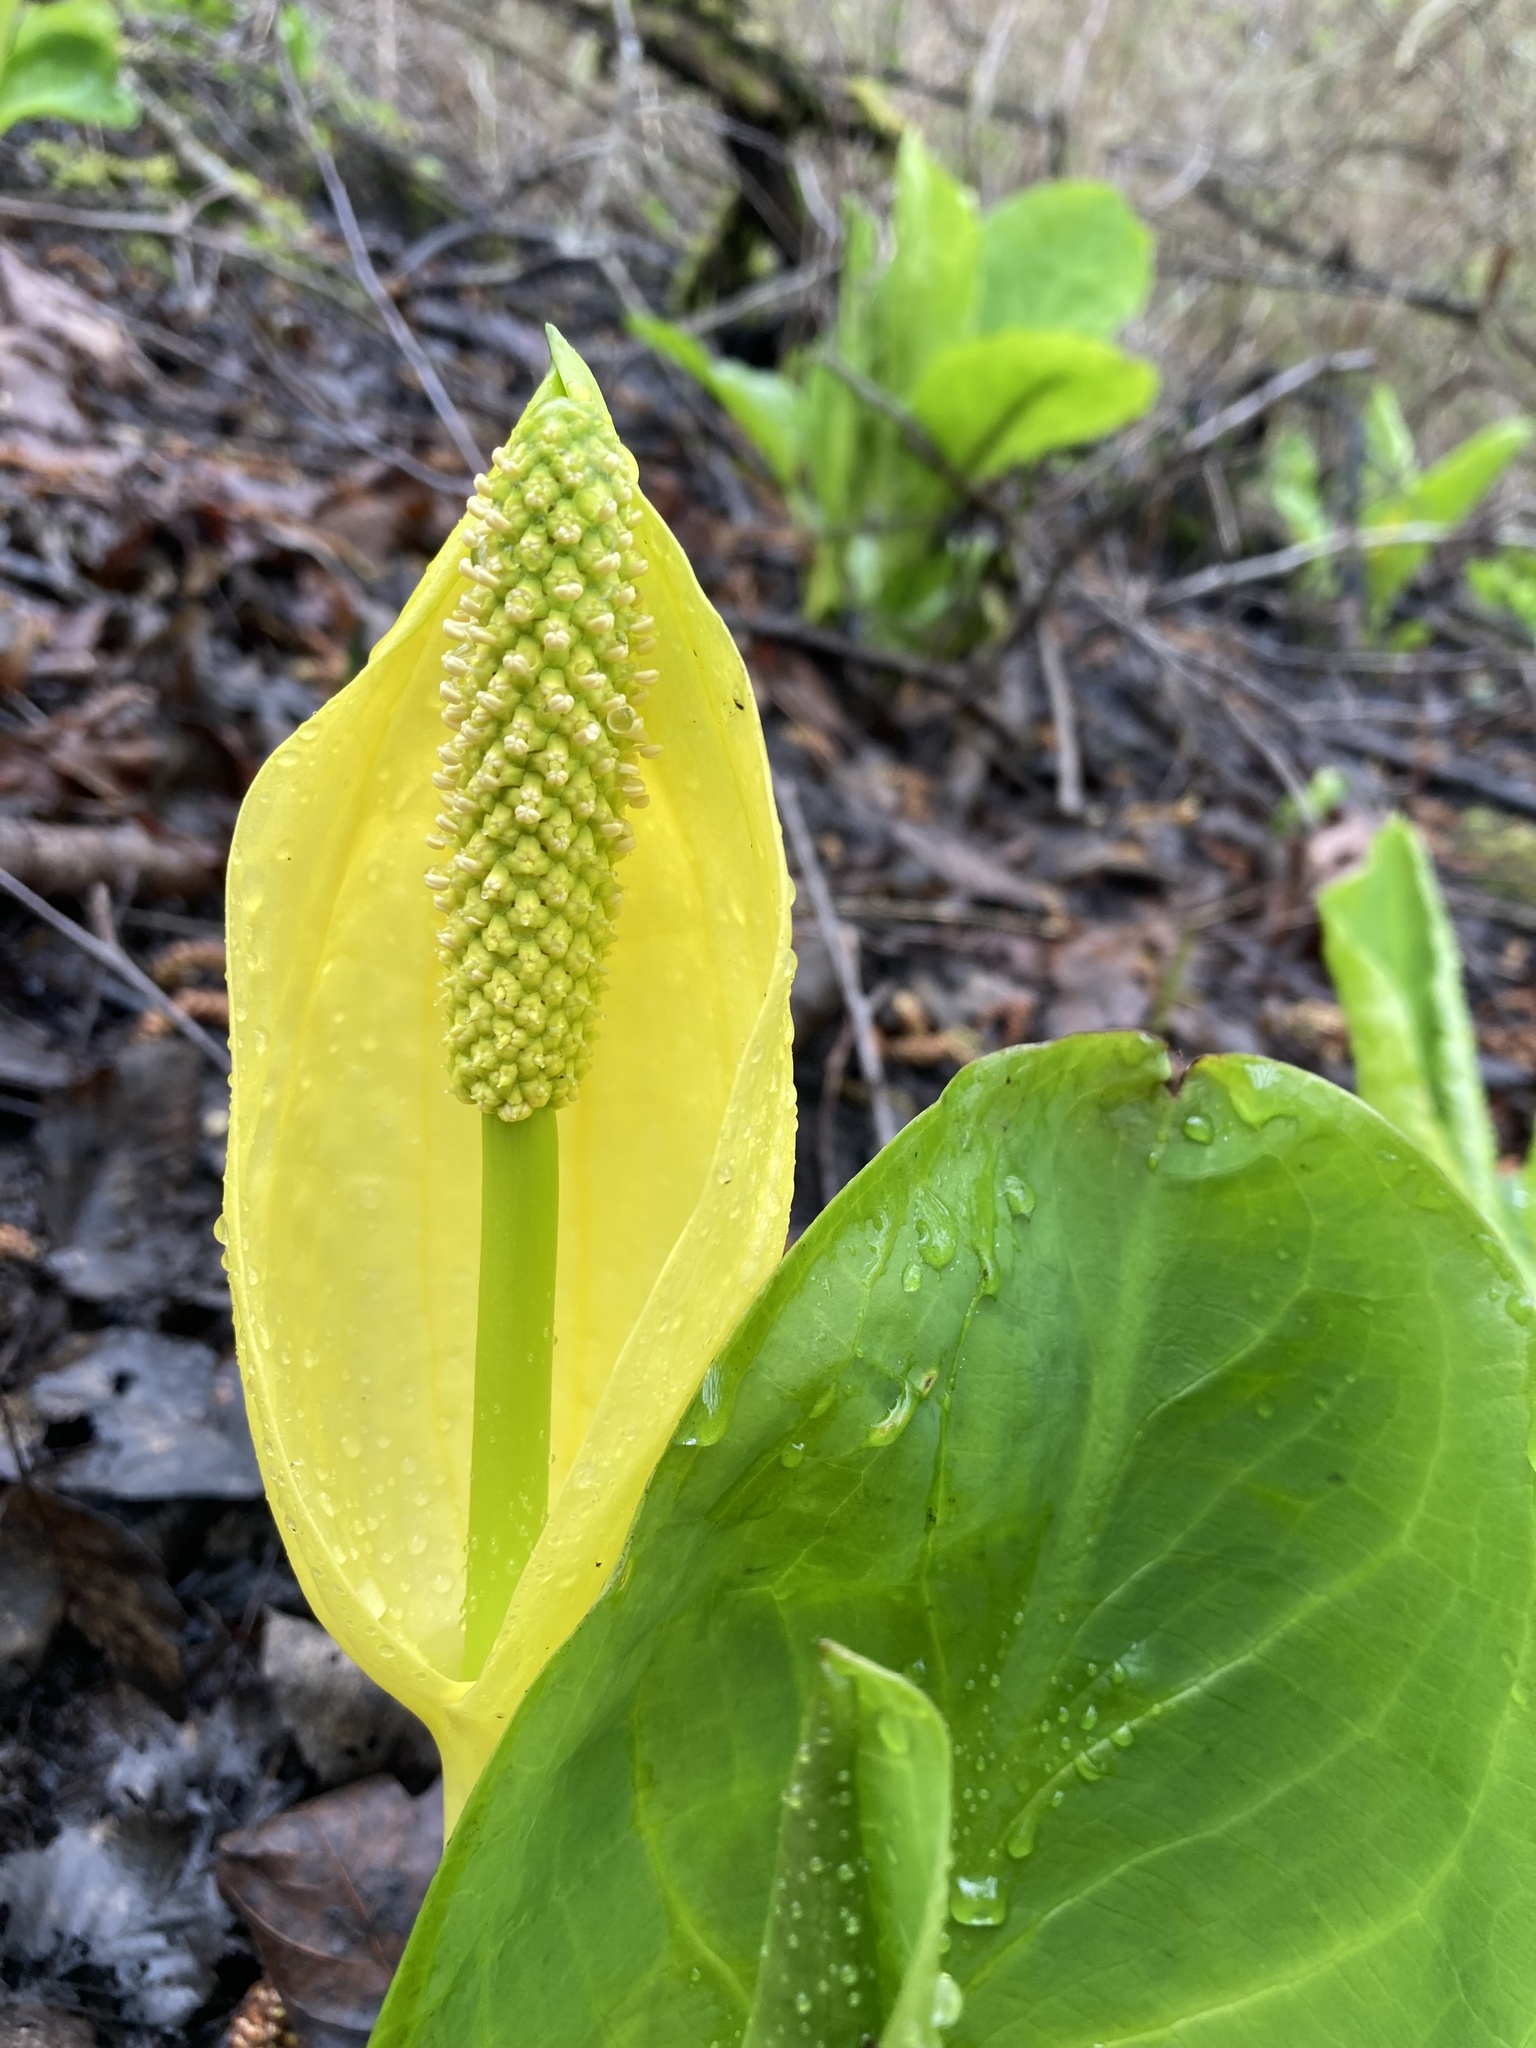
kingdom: Plantae
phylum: Tracheophyta
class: Liliopsida
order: Alismatales
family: Araceae
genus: Lysichiton
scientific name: Lysichiton americanus
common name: American skunk cabbage
